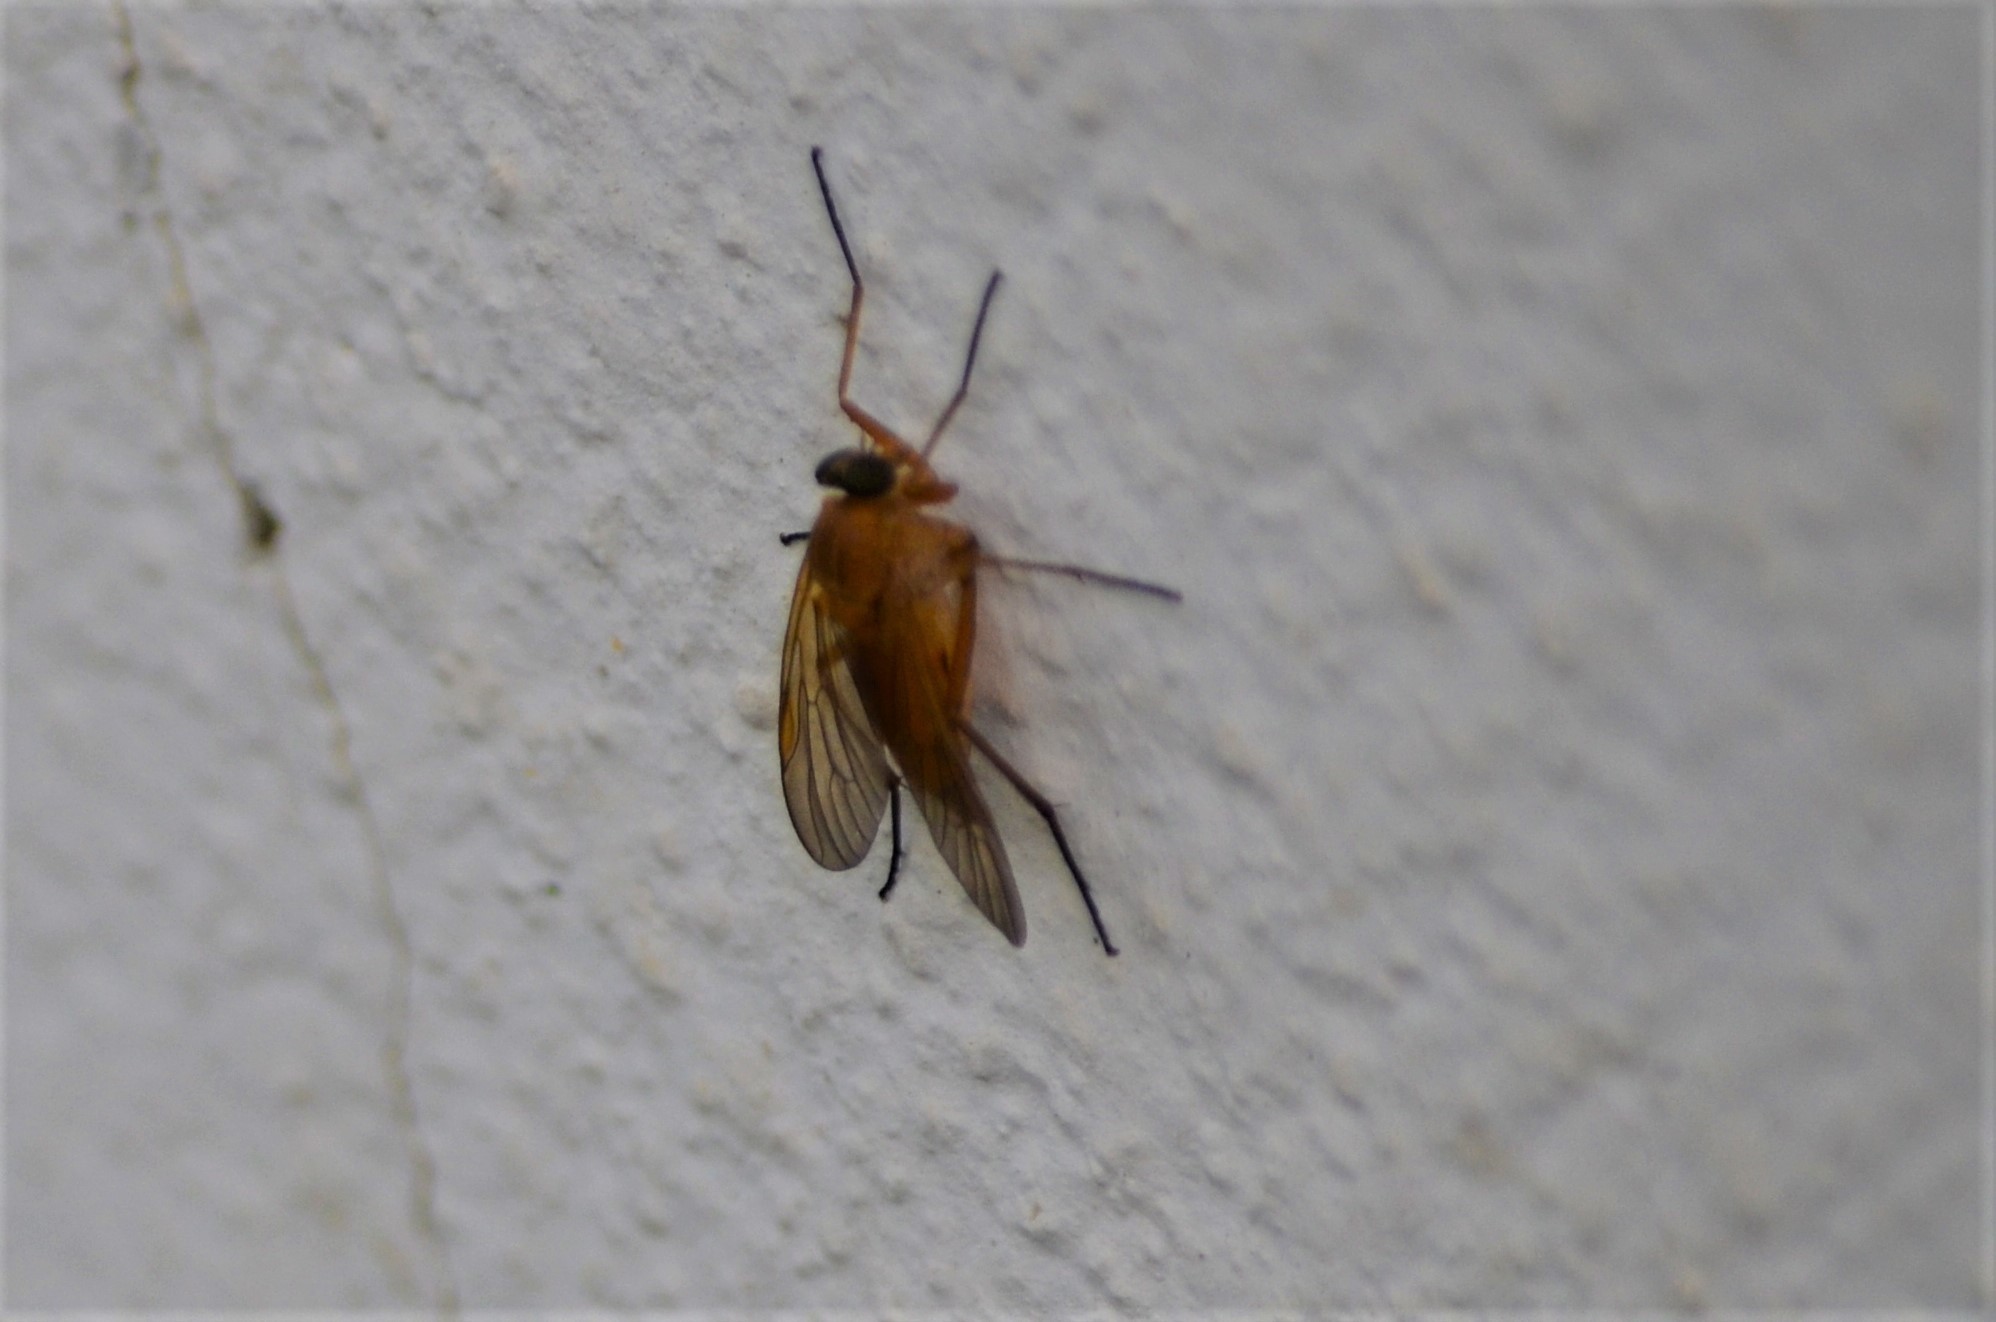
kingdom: Animalia
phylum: Arthropoda
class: Insecta
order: Diptera
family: Rhagionidae
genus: Rhagio
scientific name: Rhagio tringaria
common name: Marsh snipefly
